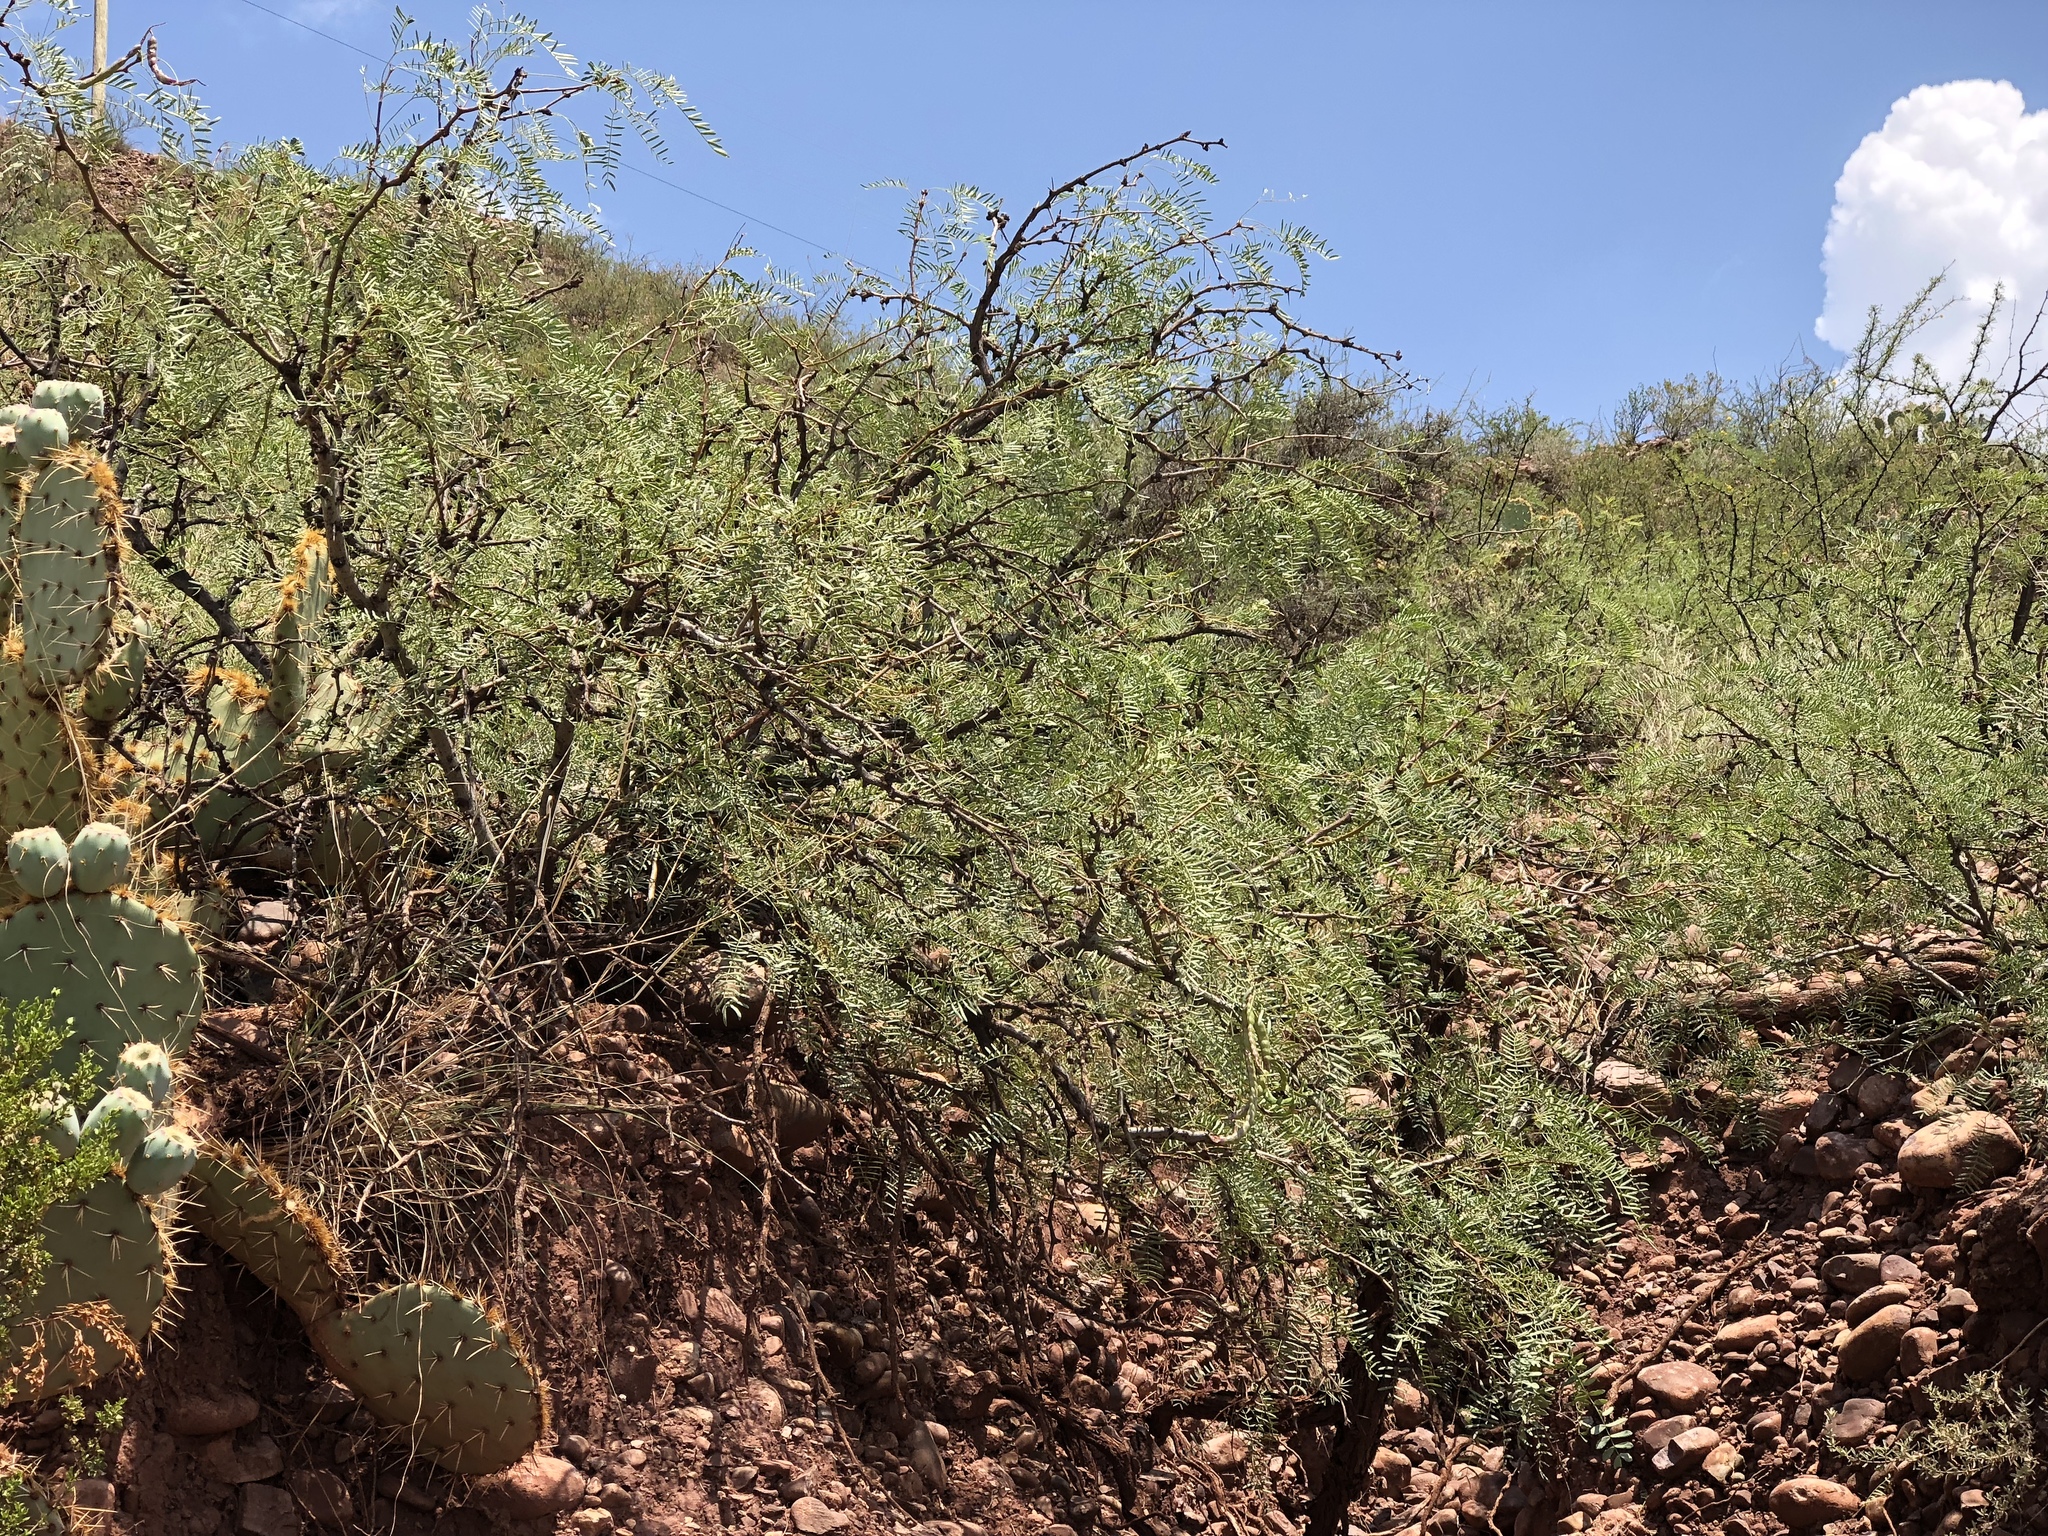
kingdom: Plantae
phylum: Tracheophyta
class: Magnoliopsida
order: Fabales
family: Fabaceae
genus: Prosopis
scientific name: Prosopis glandulosa
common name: Honey mesquite
